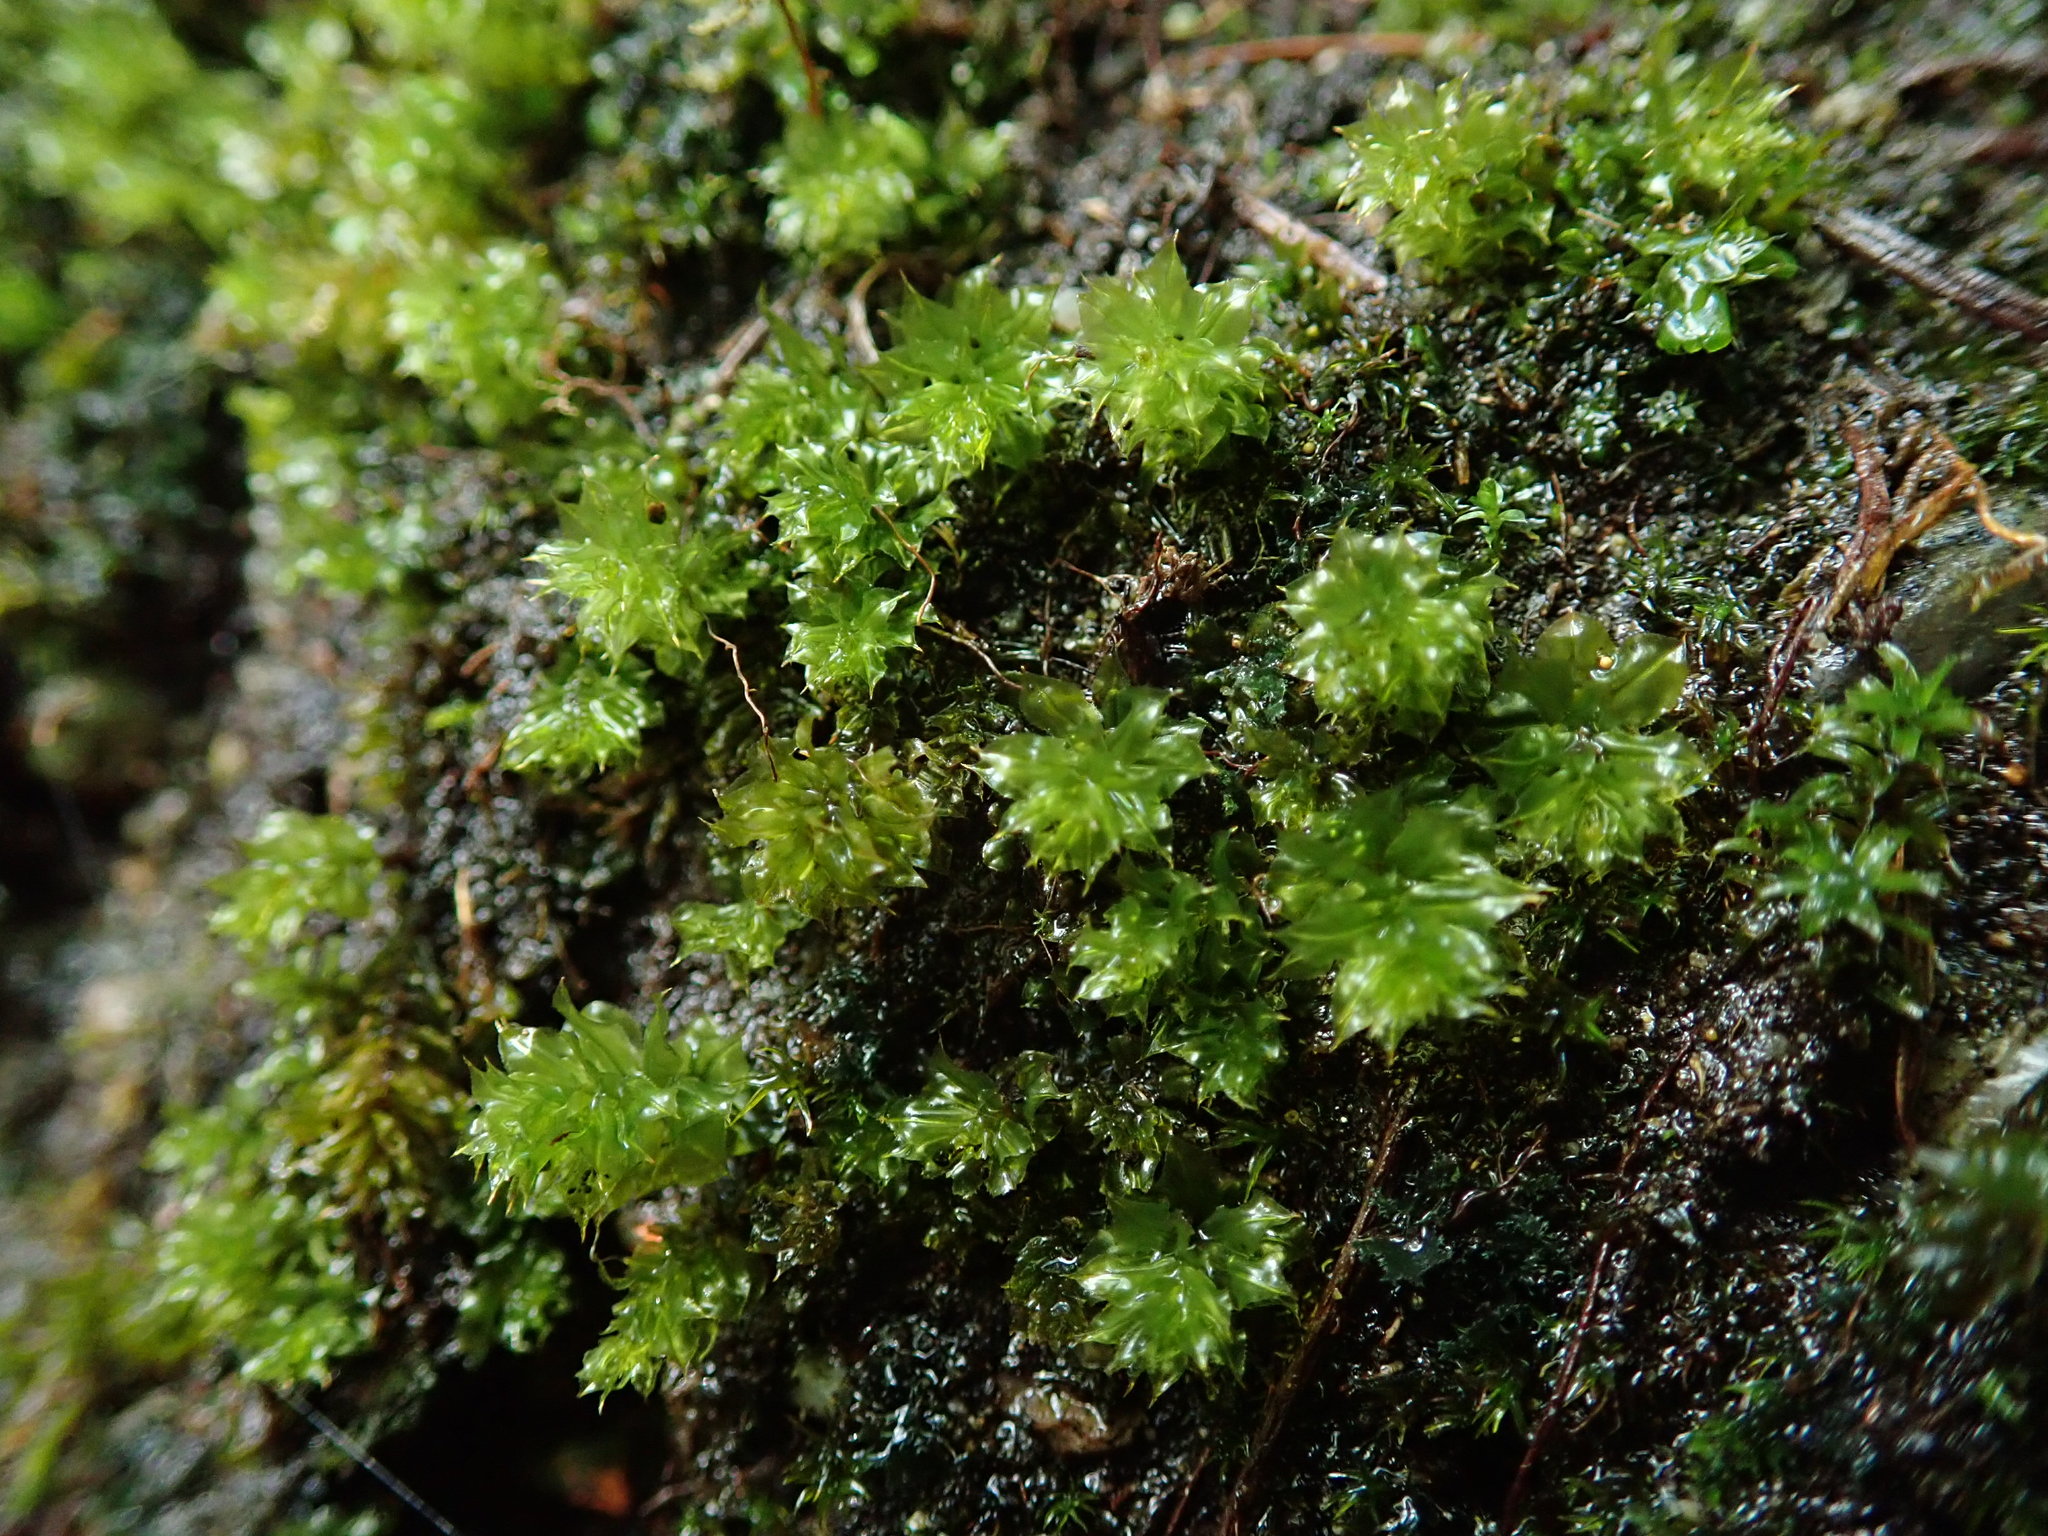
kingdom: Plantae
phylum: Bryophyta
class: Bryopsida
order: Bryales
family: Mniaceae
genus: Plagiomnium
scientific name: Plagiomnium venustum
